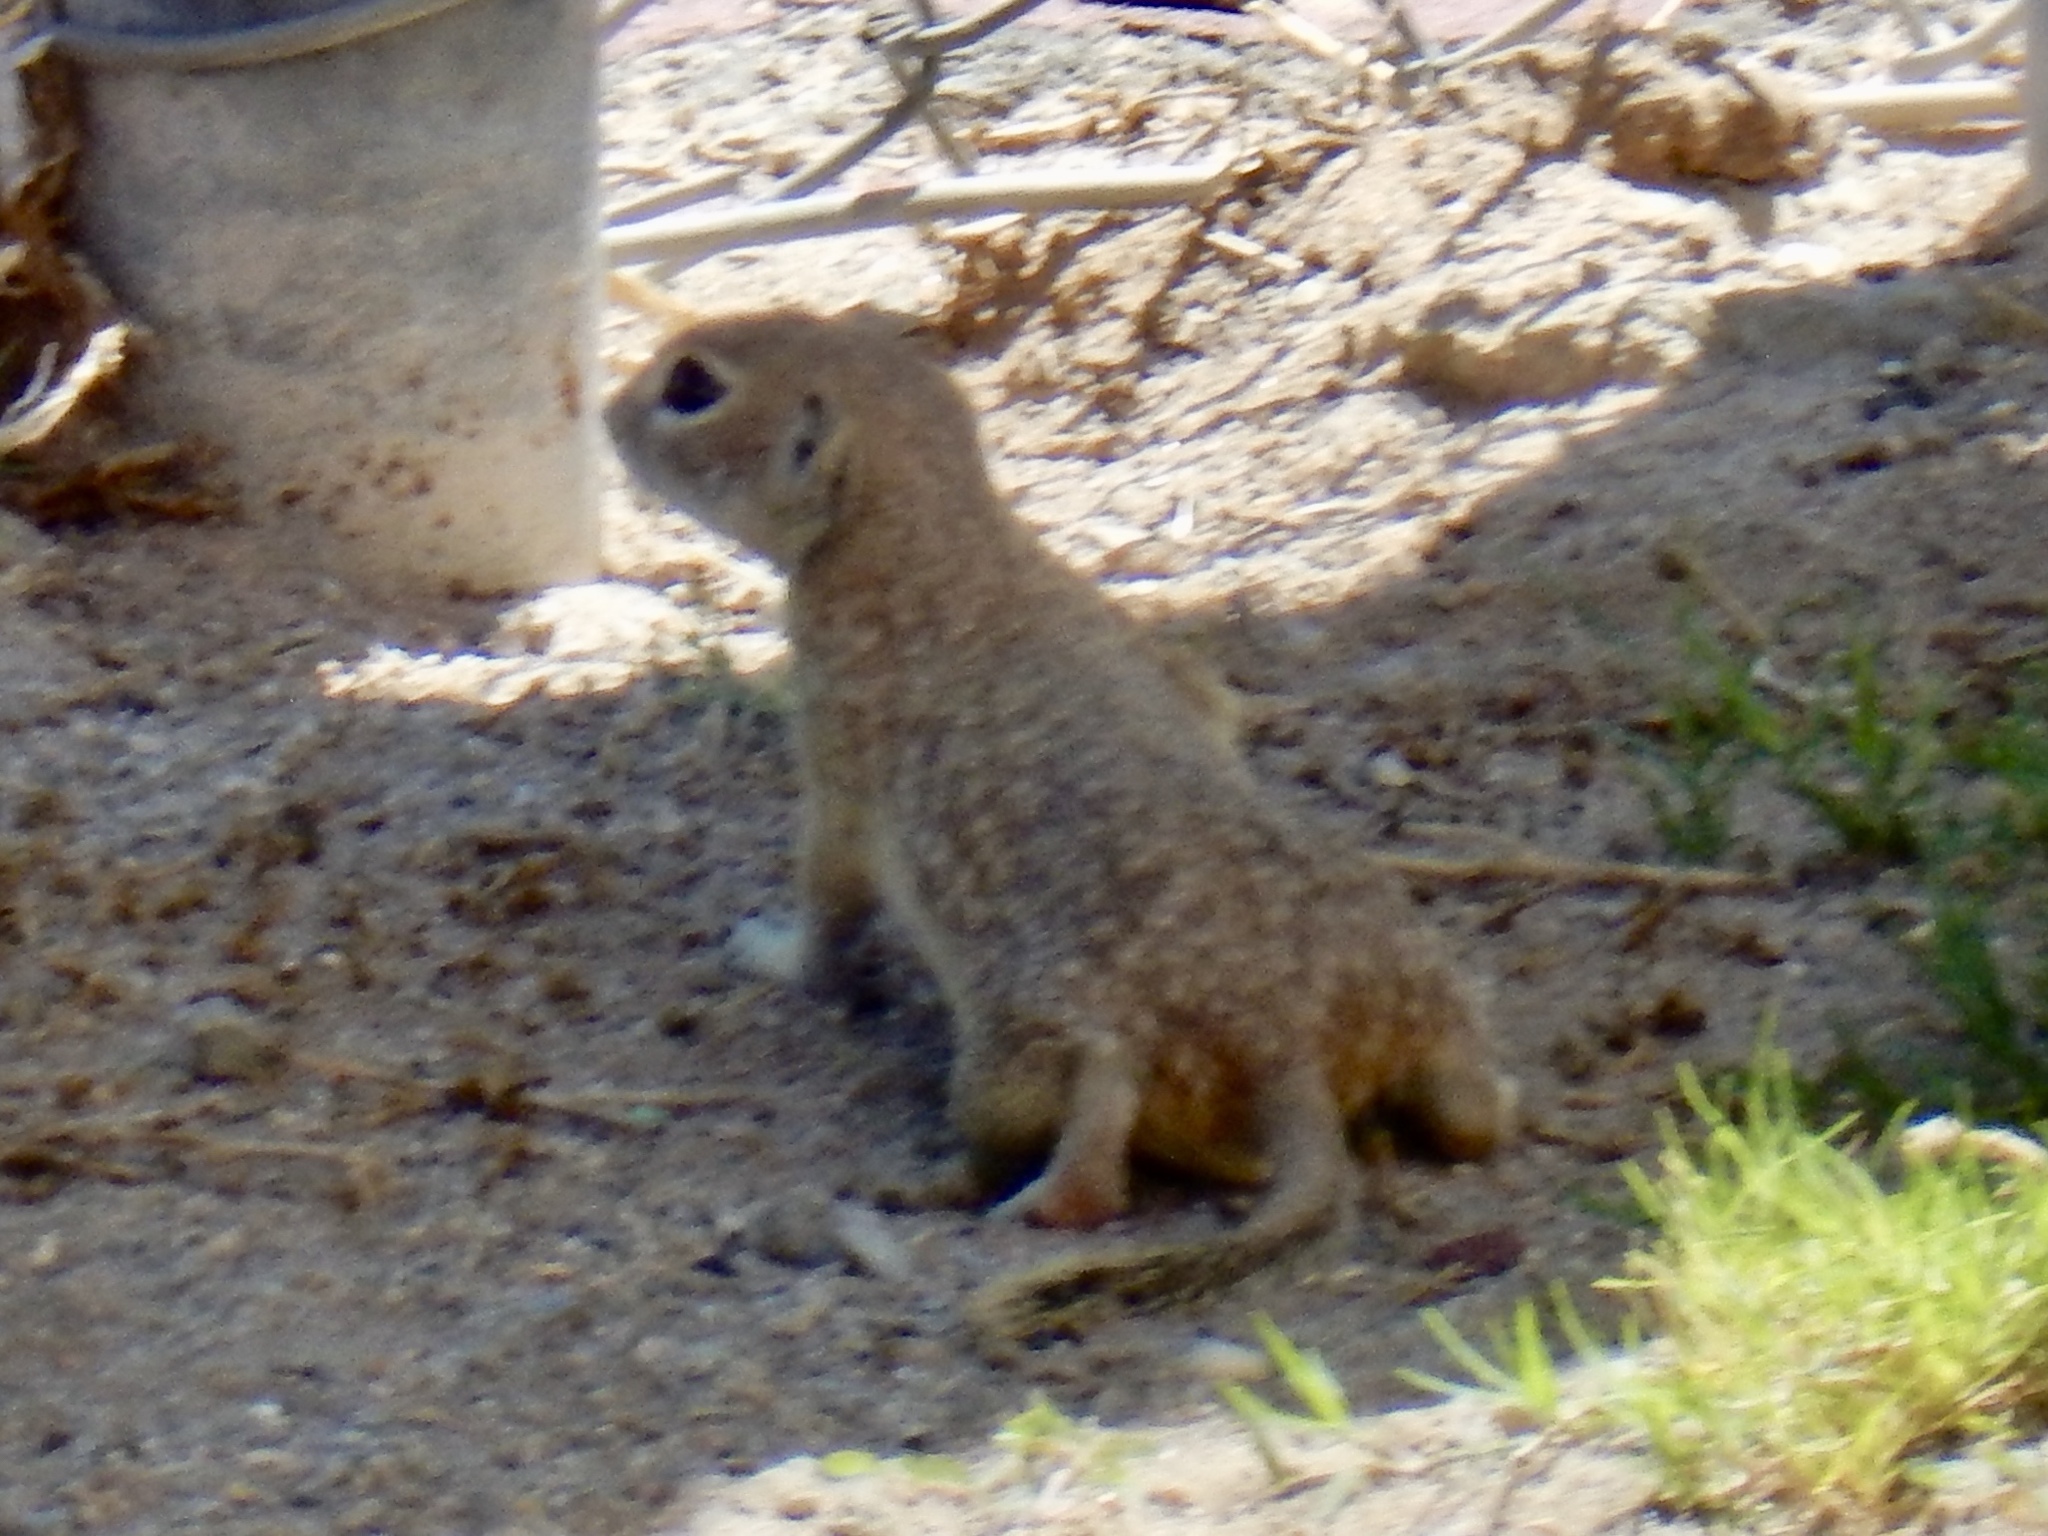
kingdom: Animalia
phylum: Chordata
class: Mammalia
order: Rodentia
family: Sciuridae
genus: Xerospermophilus
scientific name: Xerospermophilus spilosoma
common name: Spotted ground squirrel
